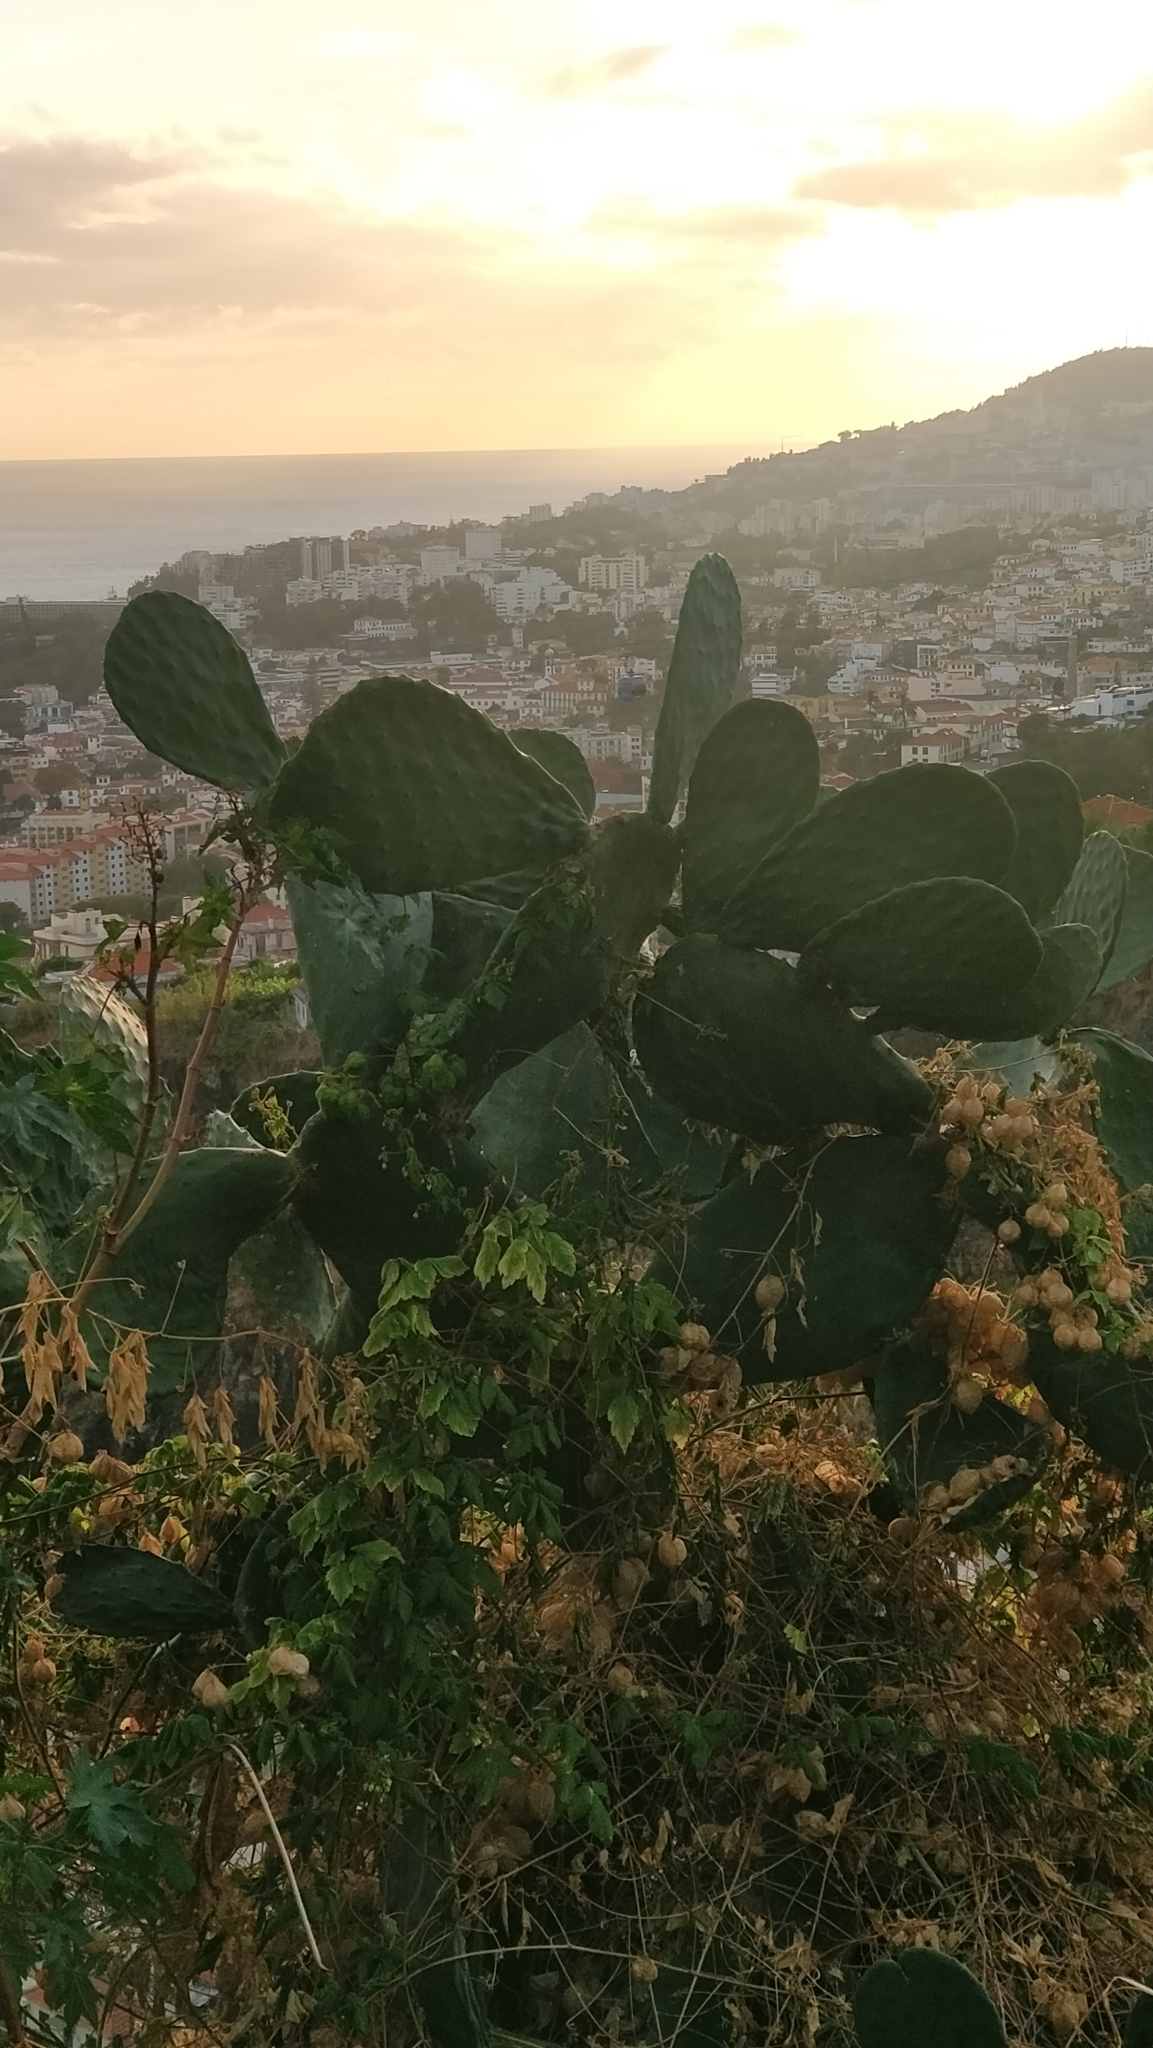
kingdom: Plantae
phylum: Tracheophyta
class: Magnoliopsida
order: Caryophyllales
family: Cactaceae
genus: Opuntia
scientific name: Opuntia ficus-indica
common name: Barbary fig
